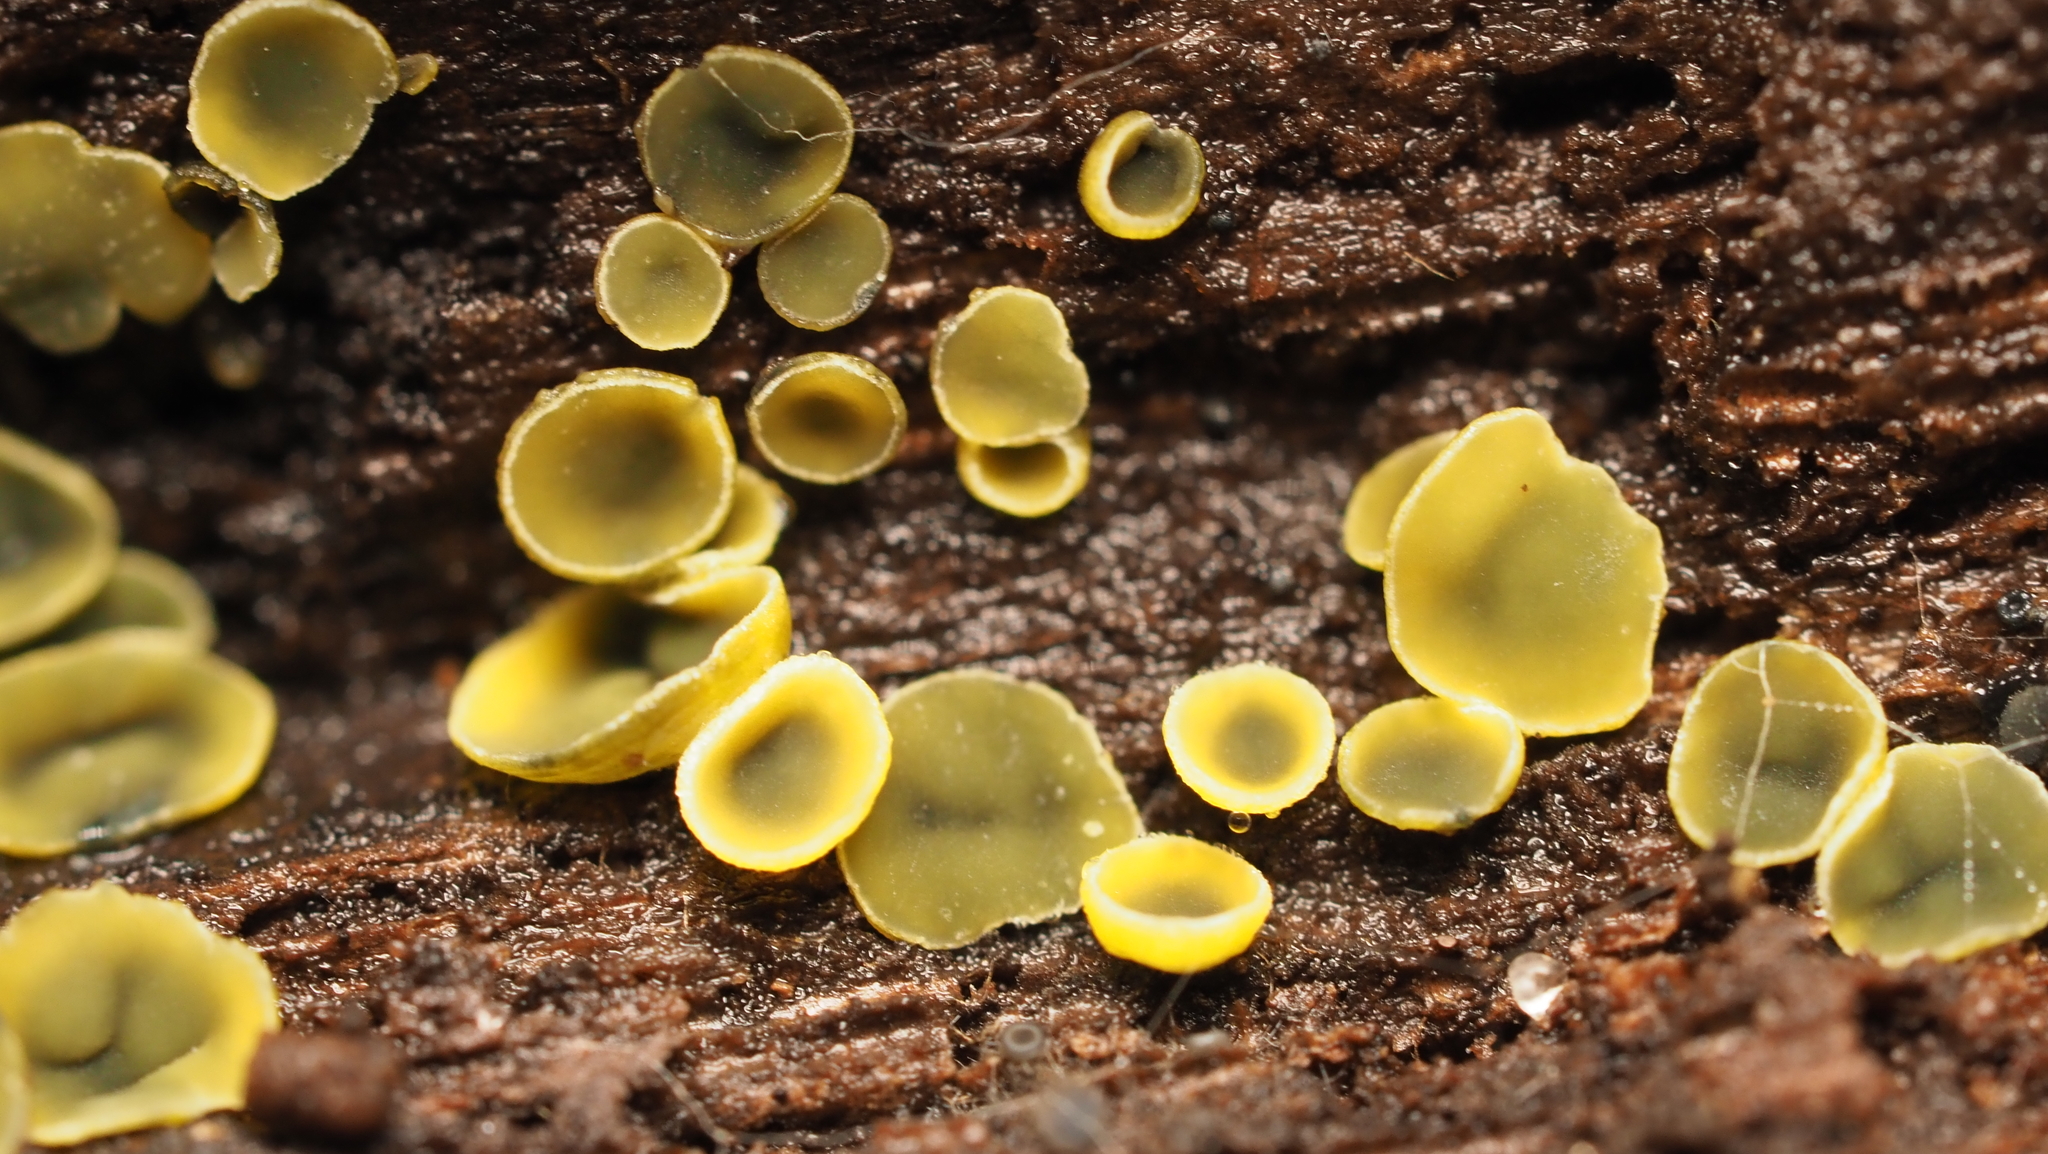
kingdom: Fungi
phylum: Ascomycota
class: Leotiomycetes
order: Helotiales
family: Chlorospleniaceae
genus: Chlorosplenium
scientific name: Chlorosplenium chlora
